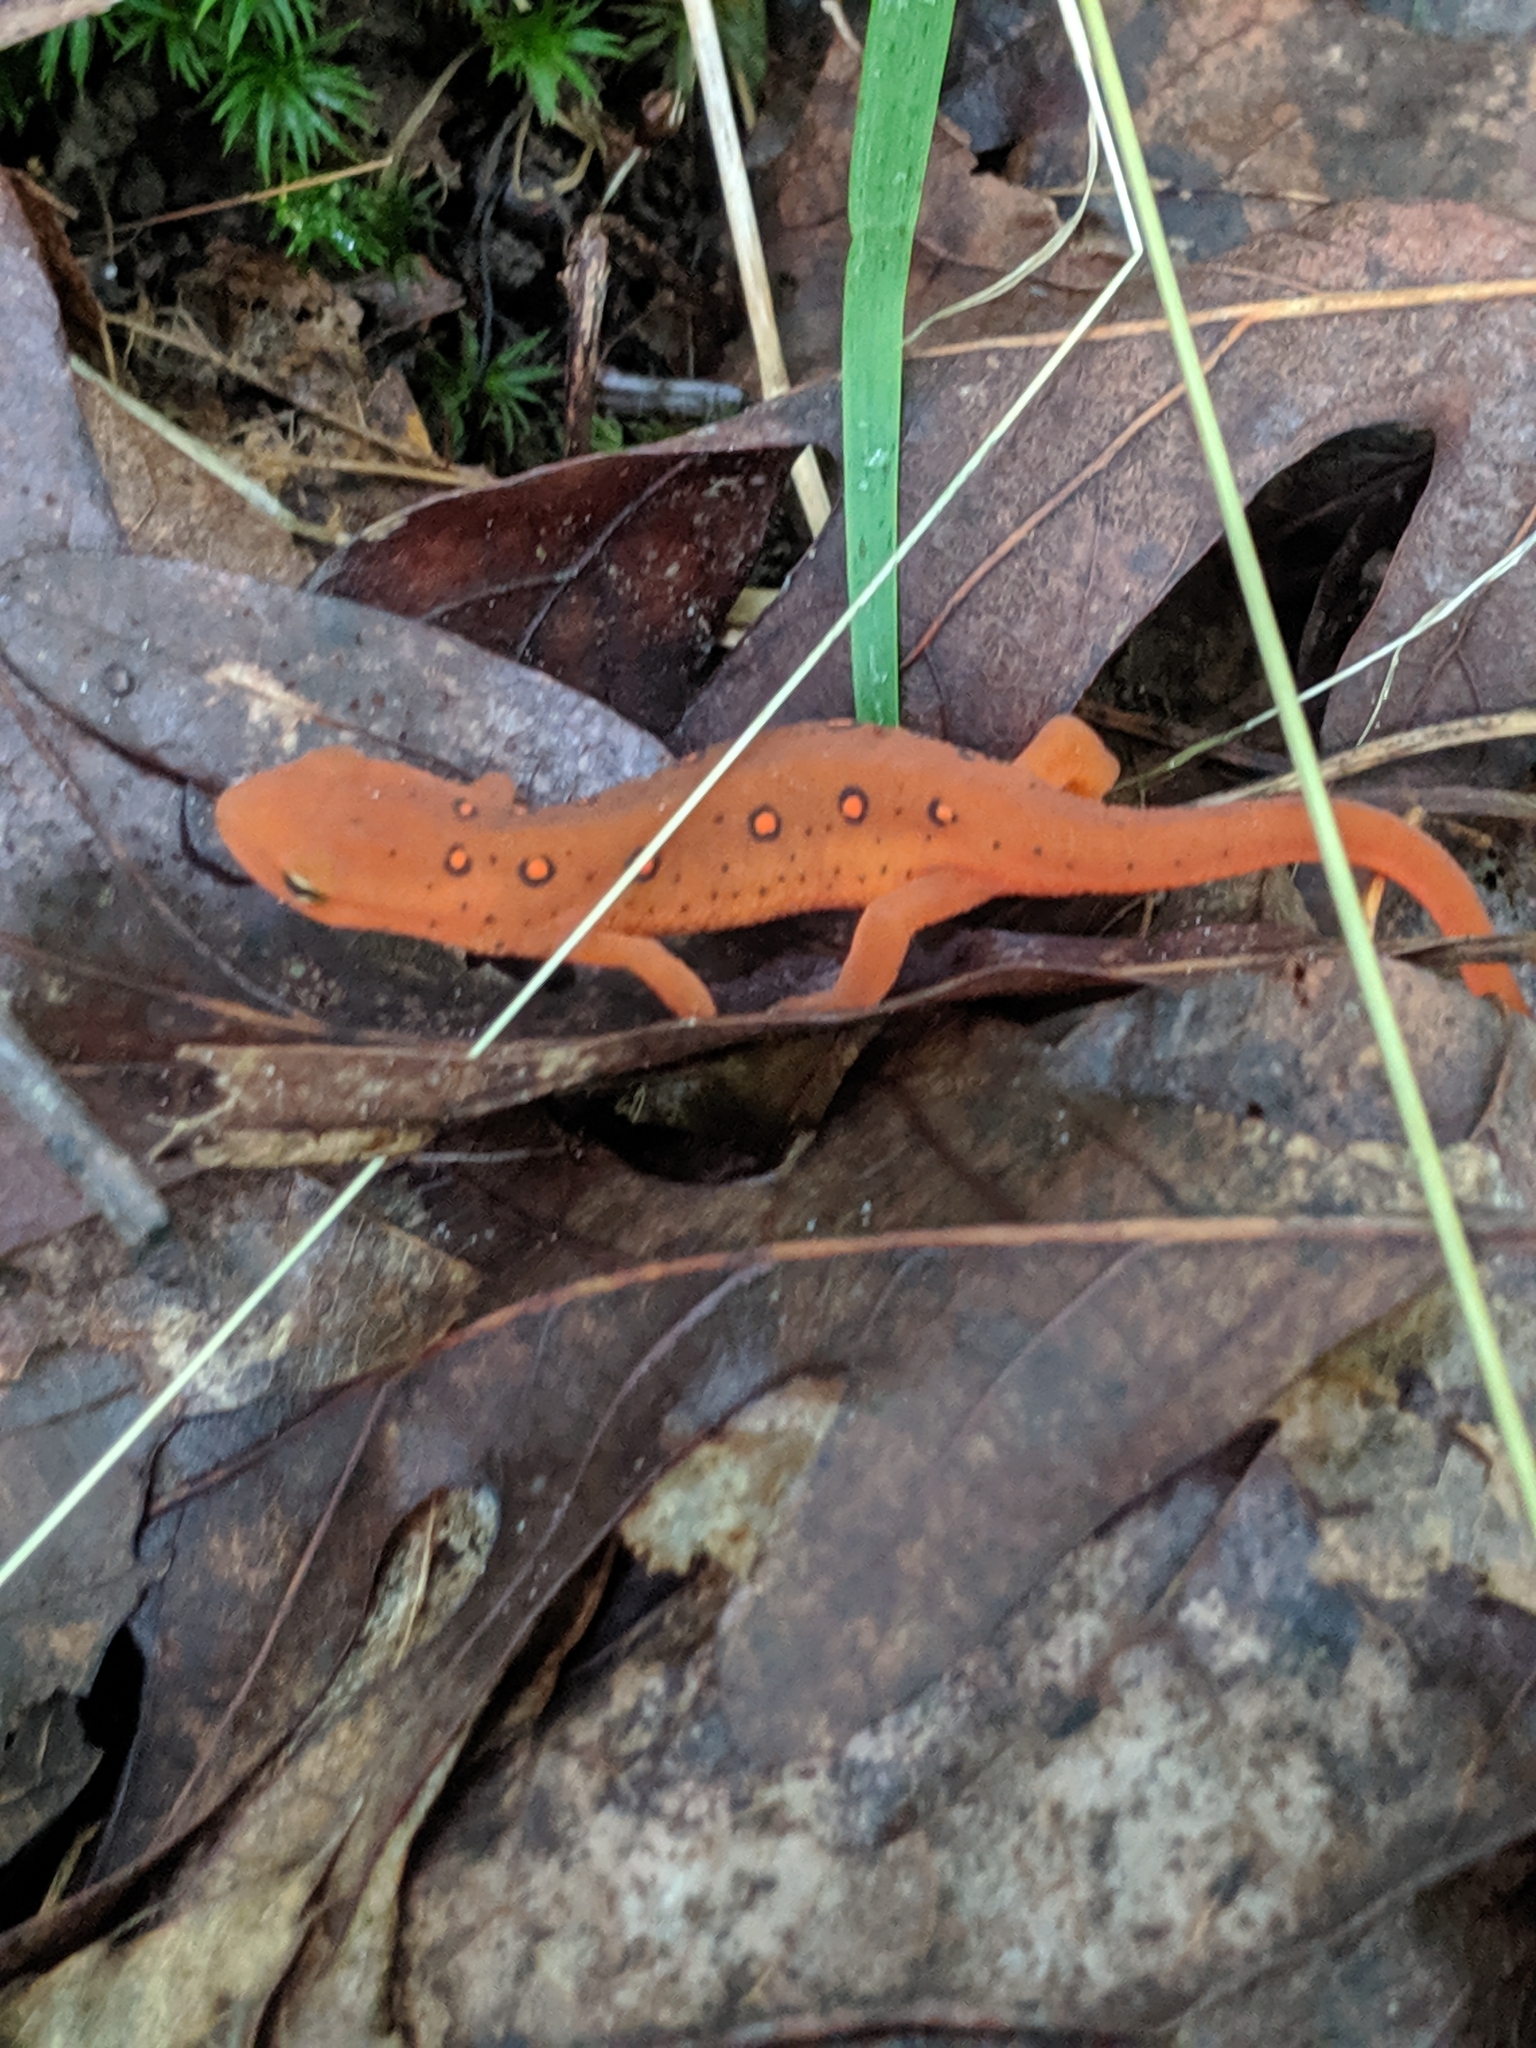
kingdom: Animalia
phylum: Chordata
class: Amphibia
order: Caudata
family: Salamandridae
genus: Notophthalmus
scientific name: Notophthalmus viridescens
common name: Eastern newt
